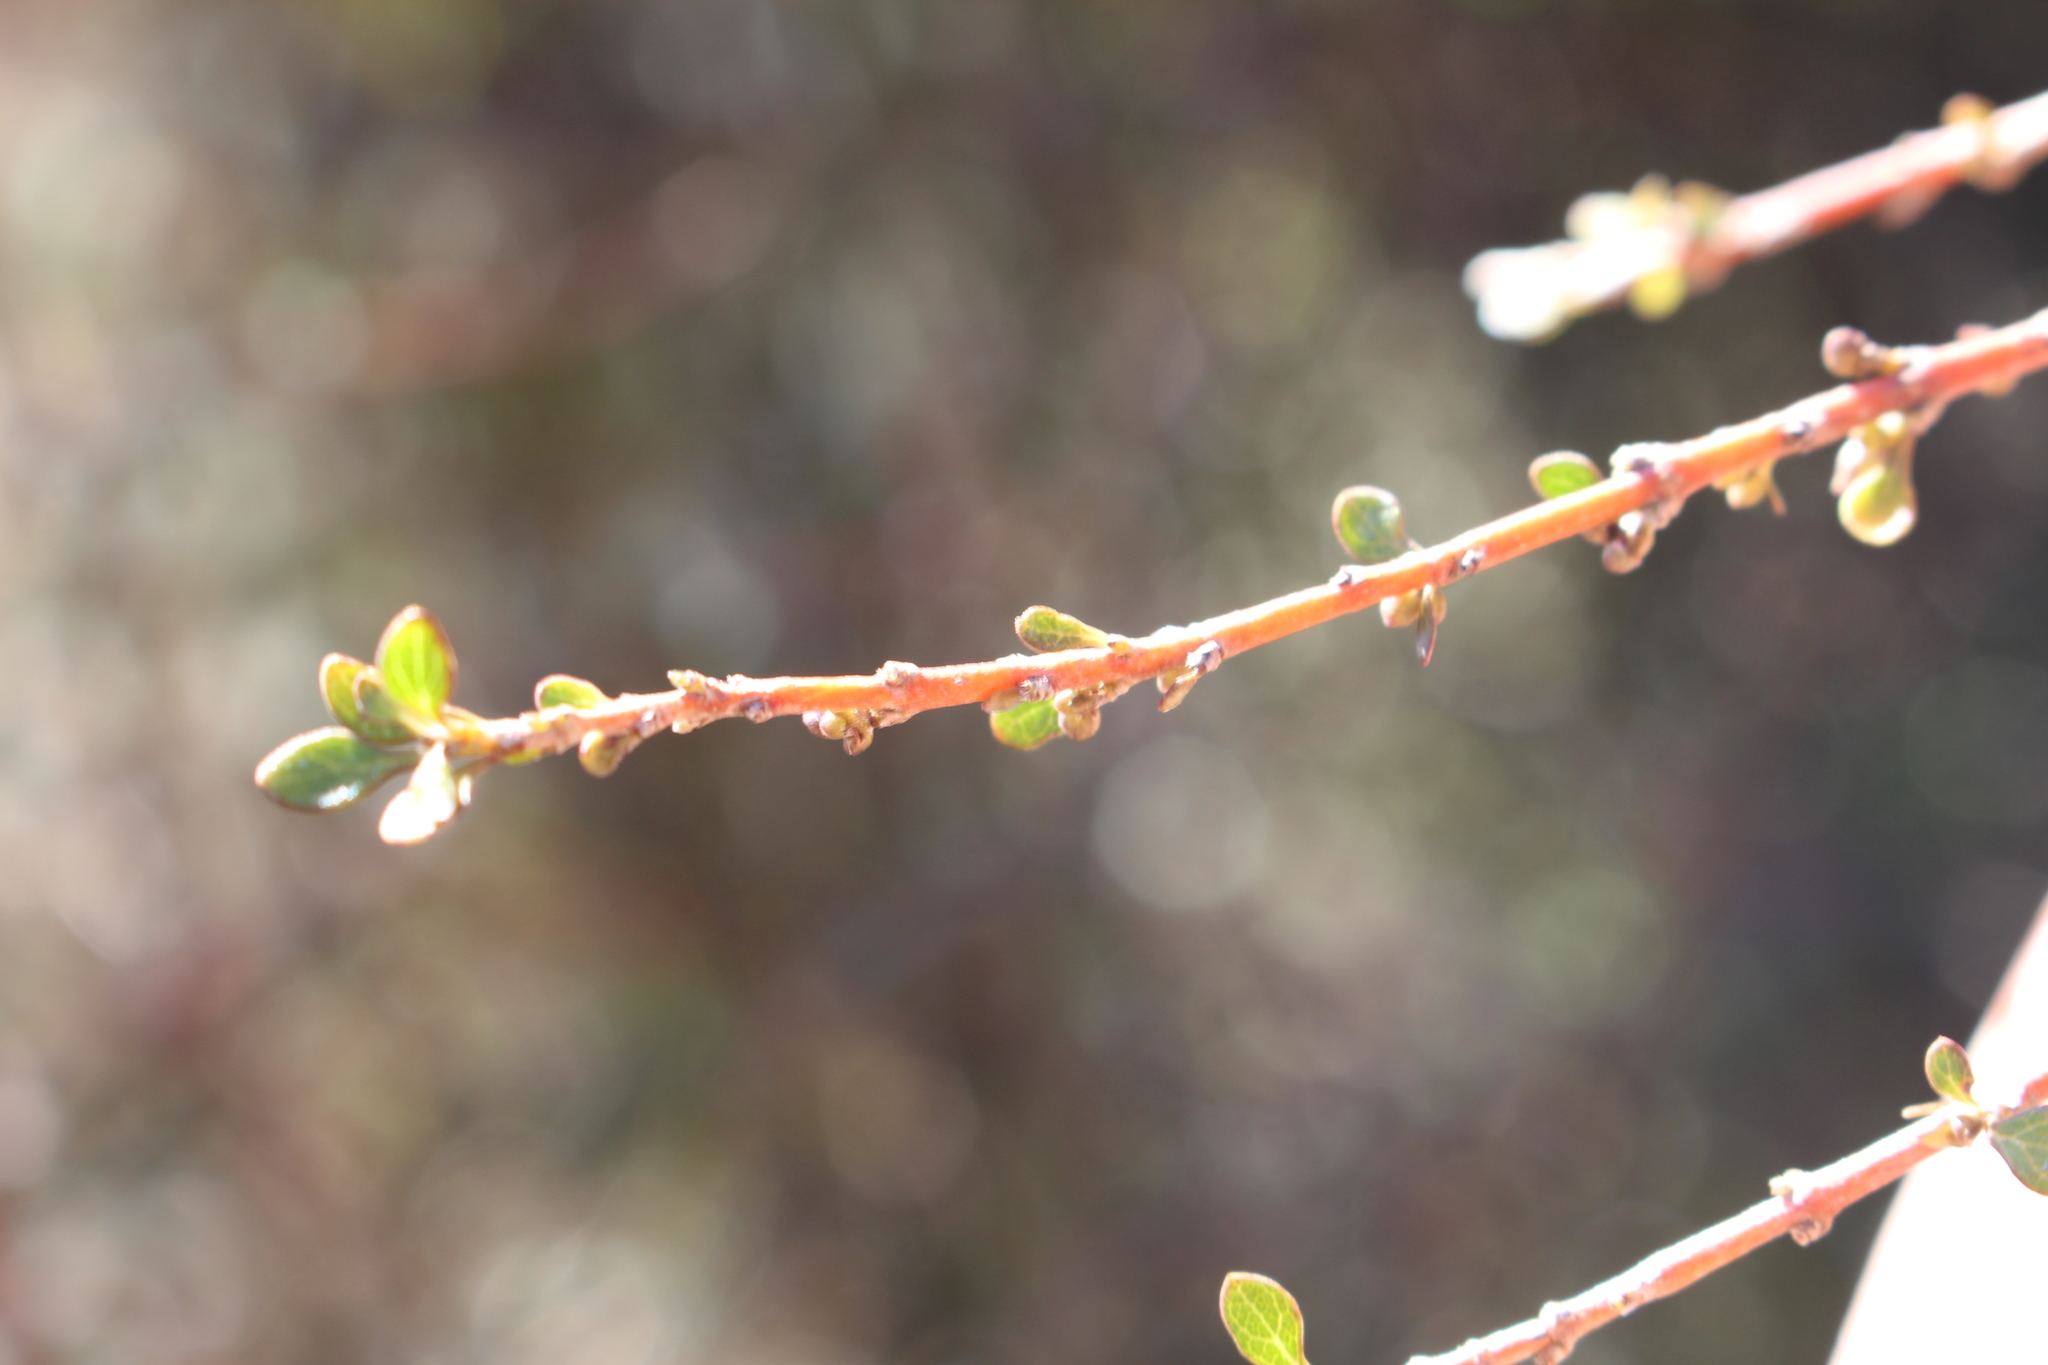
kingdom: Plantae
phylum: Tracheophyta
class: Magnoliopsida
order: Gentianales
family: Rubiaceae
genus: Coprosma
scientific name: Coprosma virescens
